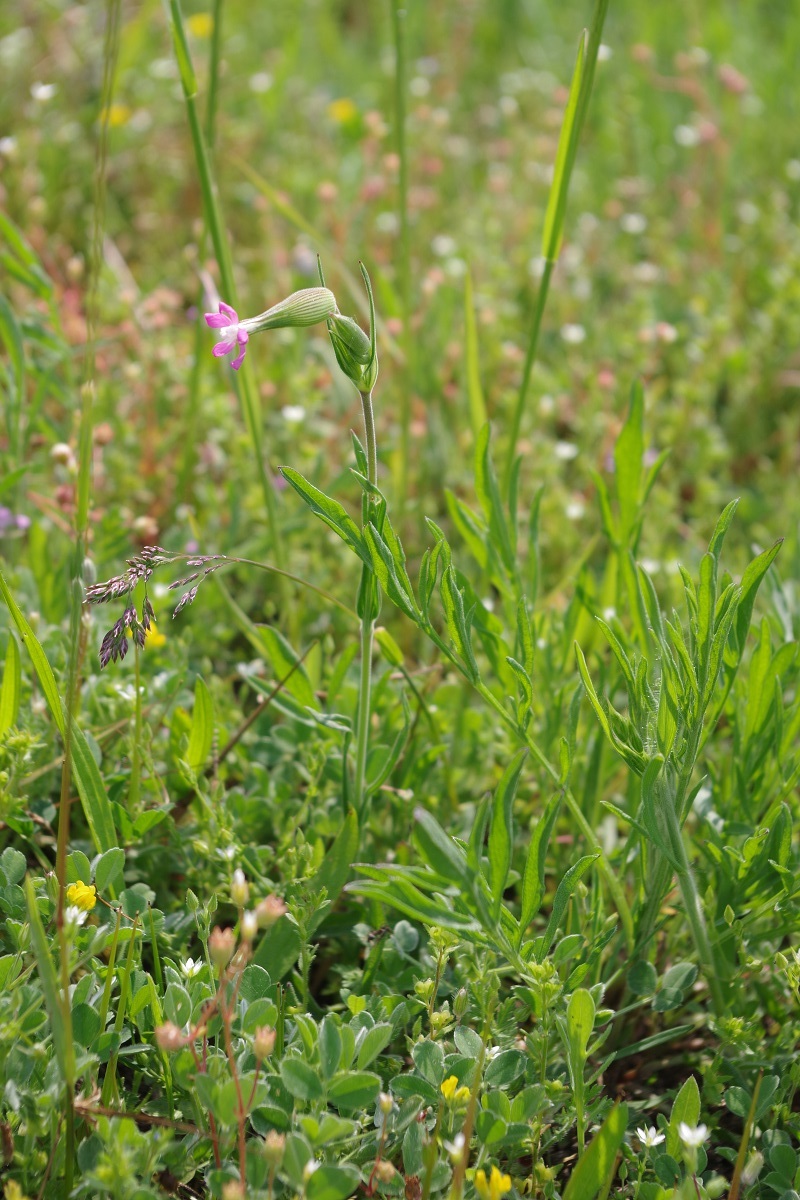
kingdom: Plantae
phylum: Tracheophyta
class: Magnoliopsida
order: Caryophyllales
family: Caryophyllaceae
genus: Silene
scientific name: Silene conica
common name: Sand catchfly
